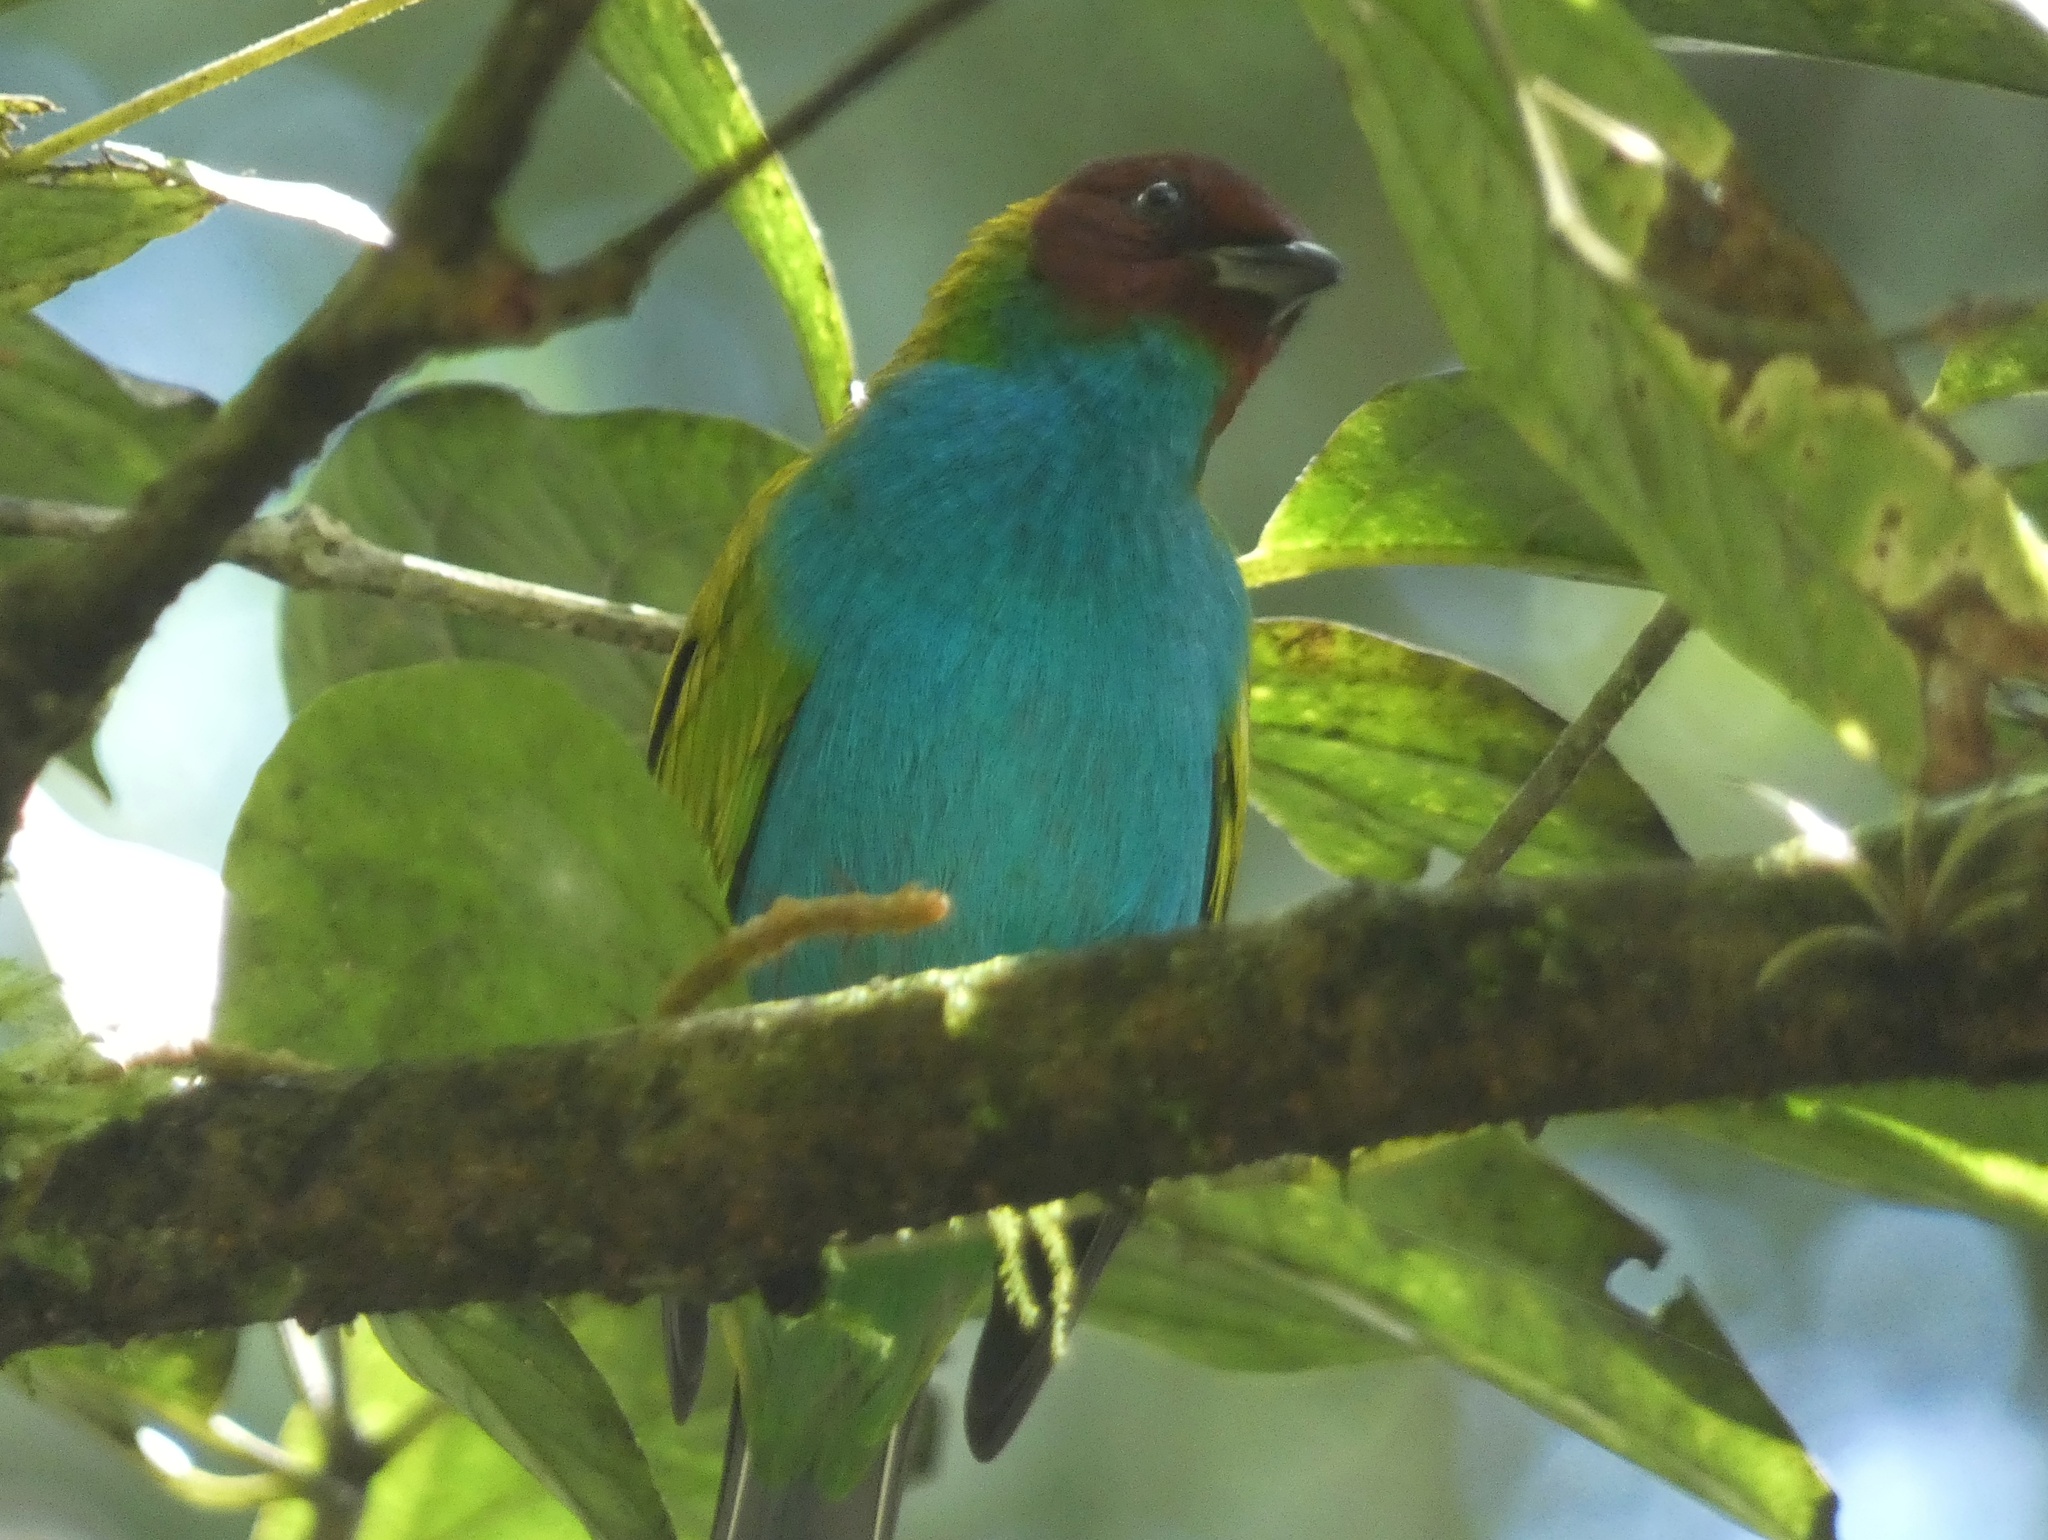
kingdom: Animalia
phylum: Chordata
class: Aves
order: Passeriformes
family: Thraupidae
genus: Tangara
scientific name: Tangara gyrola
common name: Bay-headed tanager
